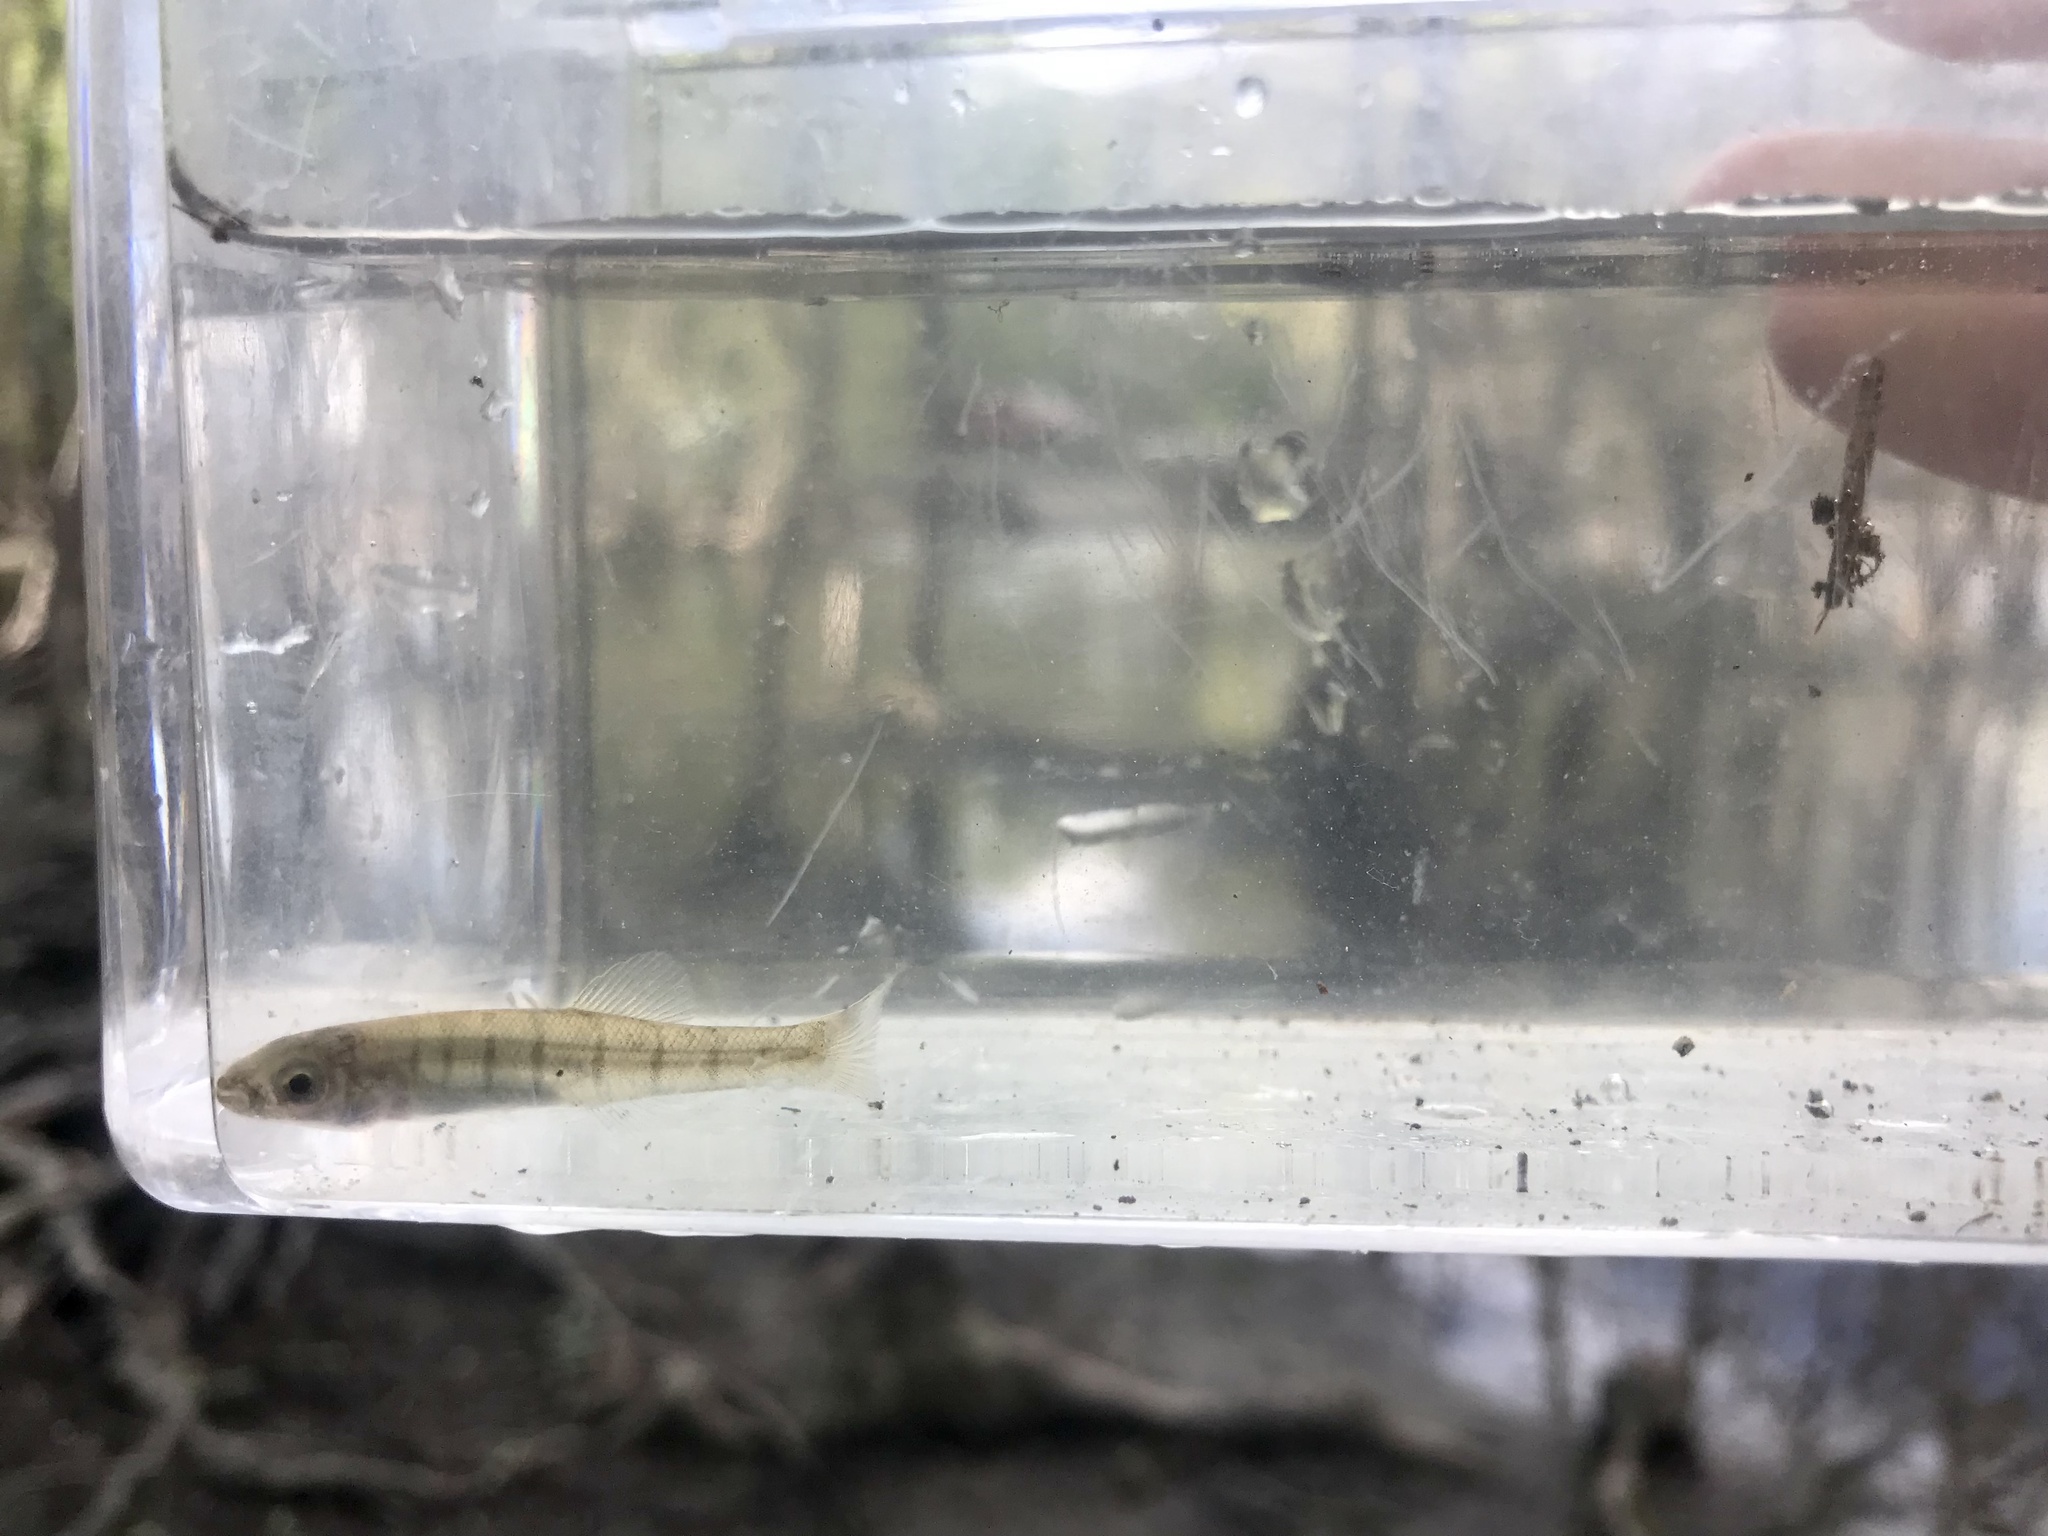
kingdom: Animalia
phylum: Chordata
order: Cyprinodontiformes
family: Fundulidae
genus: Fundulus
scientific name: Fundulus waccamensis
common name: Waccamaw killifish
